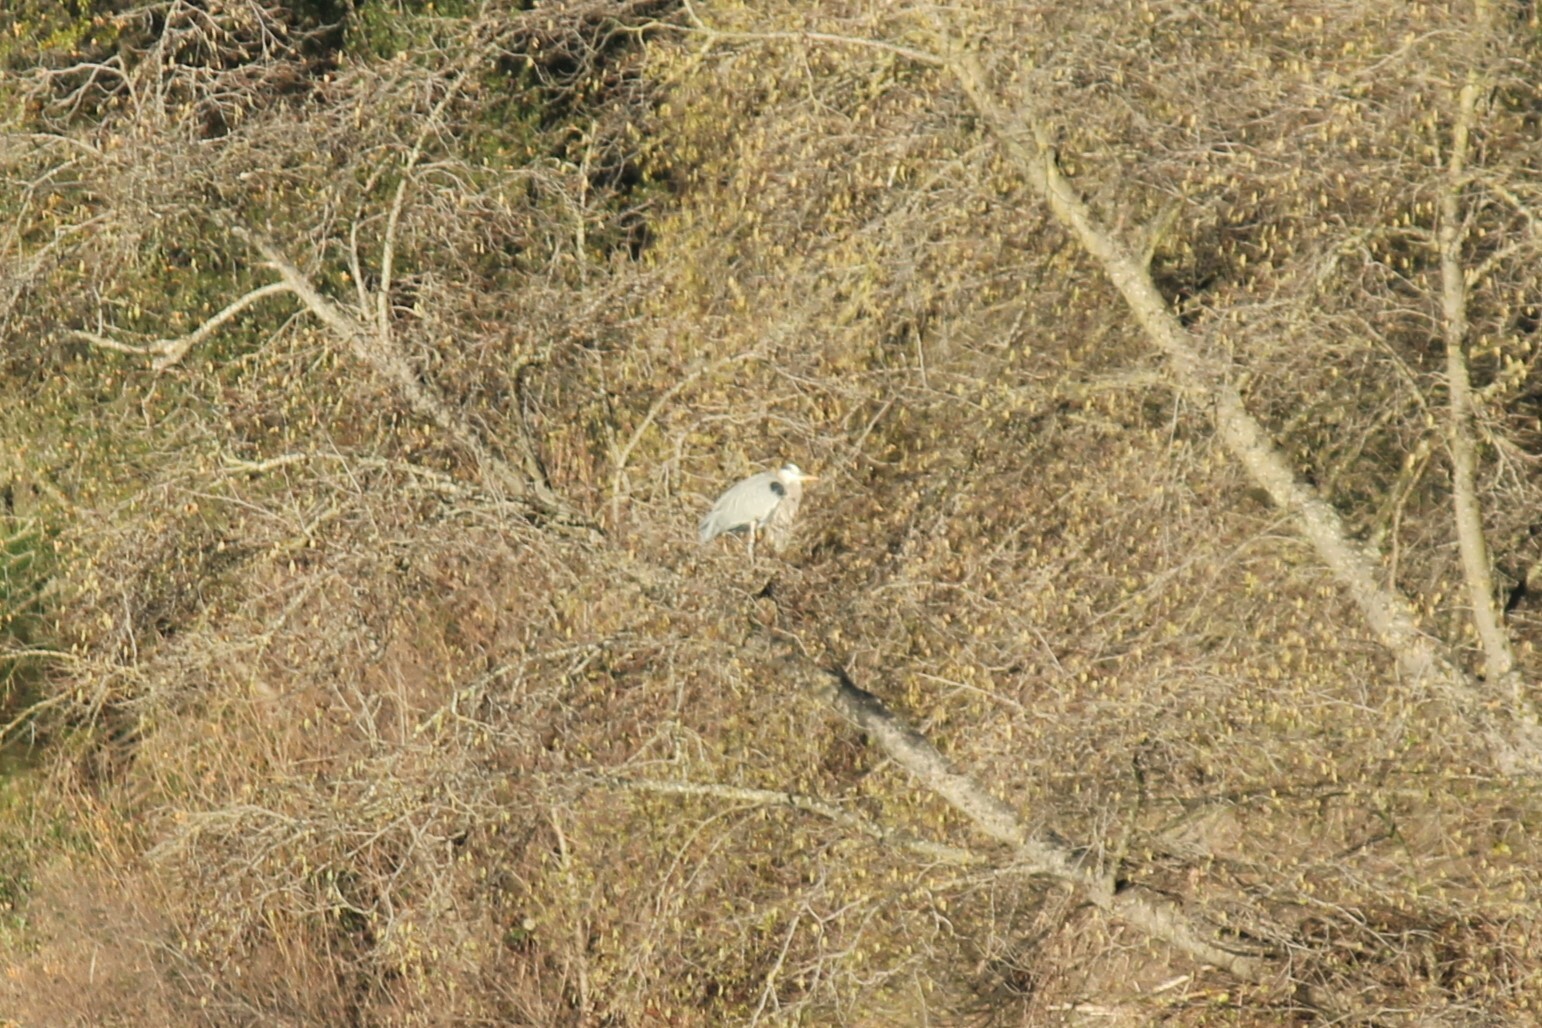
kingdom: Animalia
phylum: Chordata
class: Aves
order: Pelecaniformes
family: Ardeidae
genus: Ardea
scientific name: Ardea herodias
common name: Great blue heron
